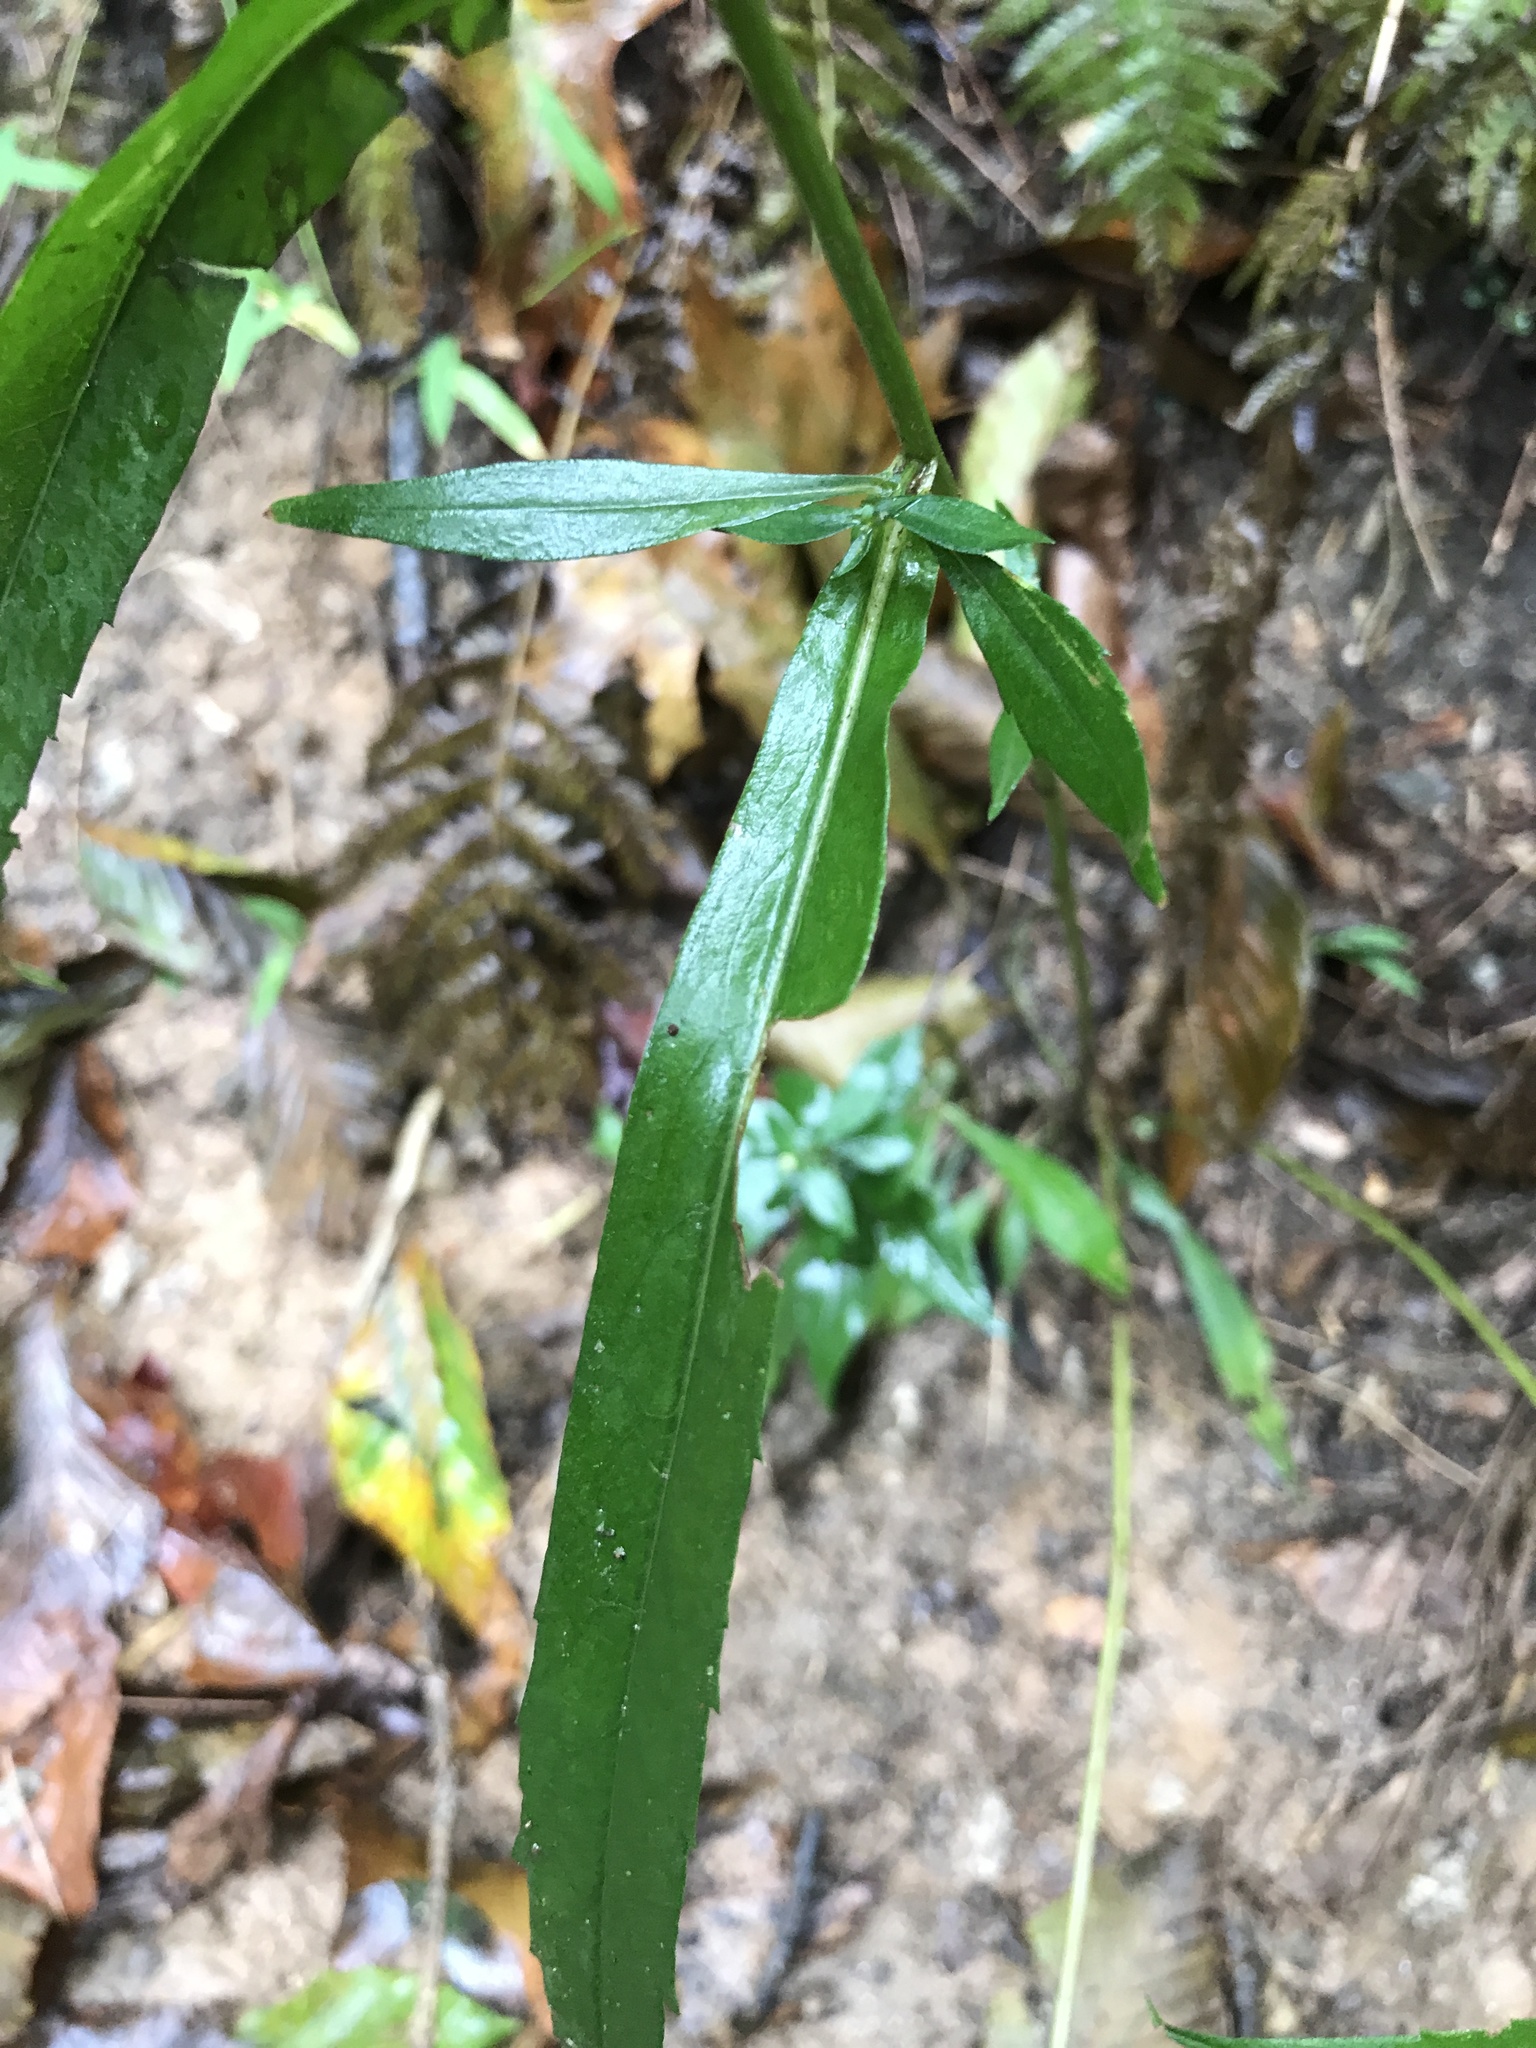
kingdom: Plantae
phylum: Tracheophyta
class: Magnoliopsida
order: Asterales
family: Asteraceae
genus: Symphyotrichum
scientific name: Symphyotrichum lateriflorum
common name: Calico aster
